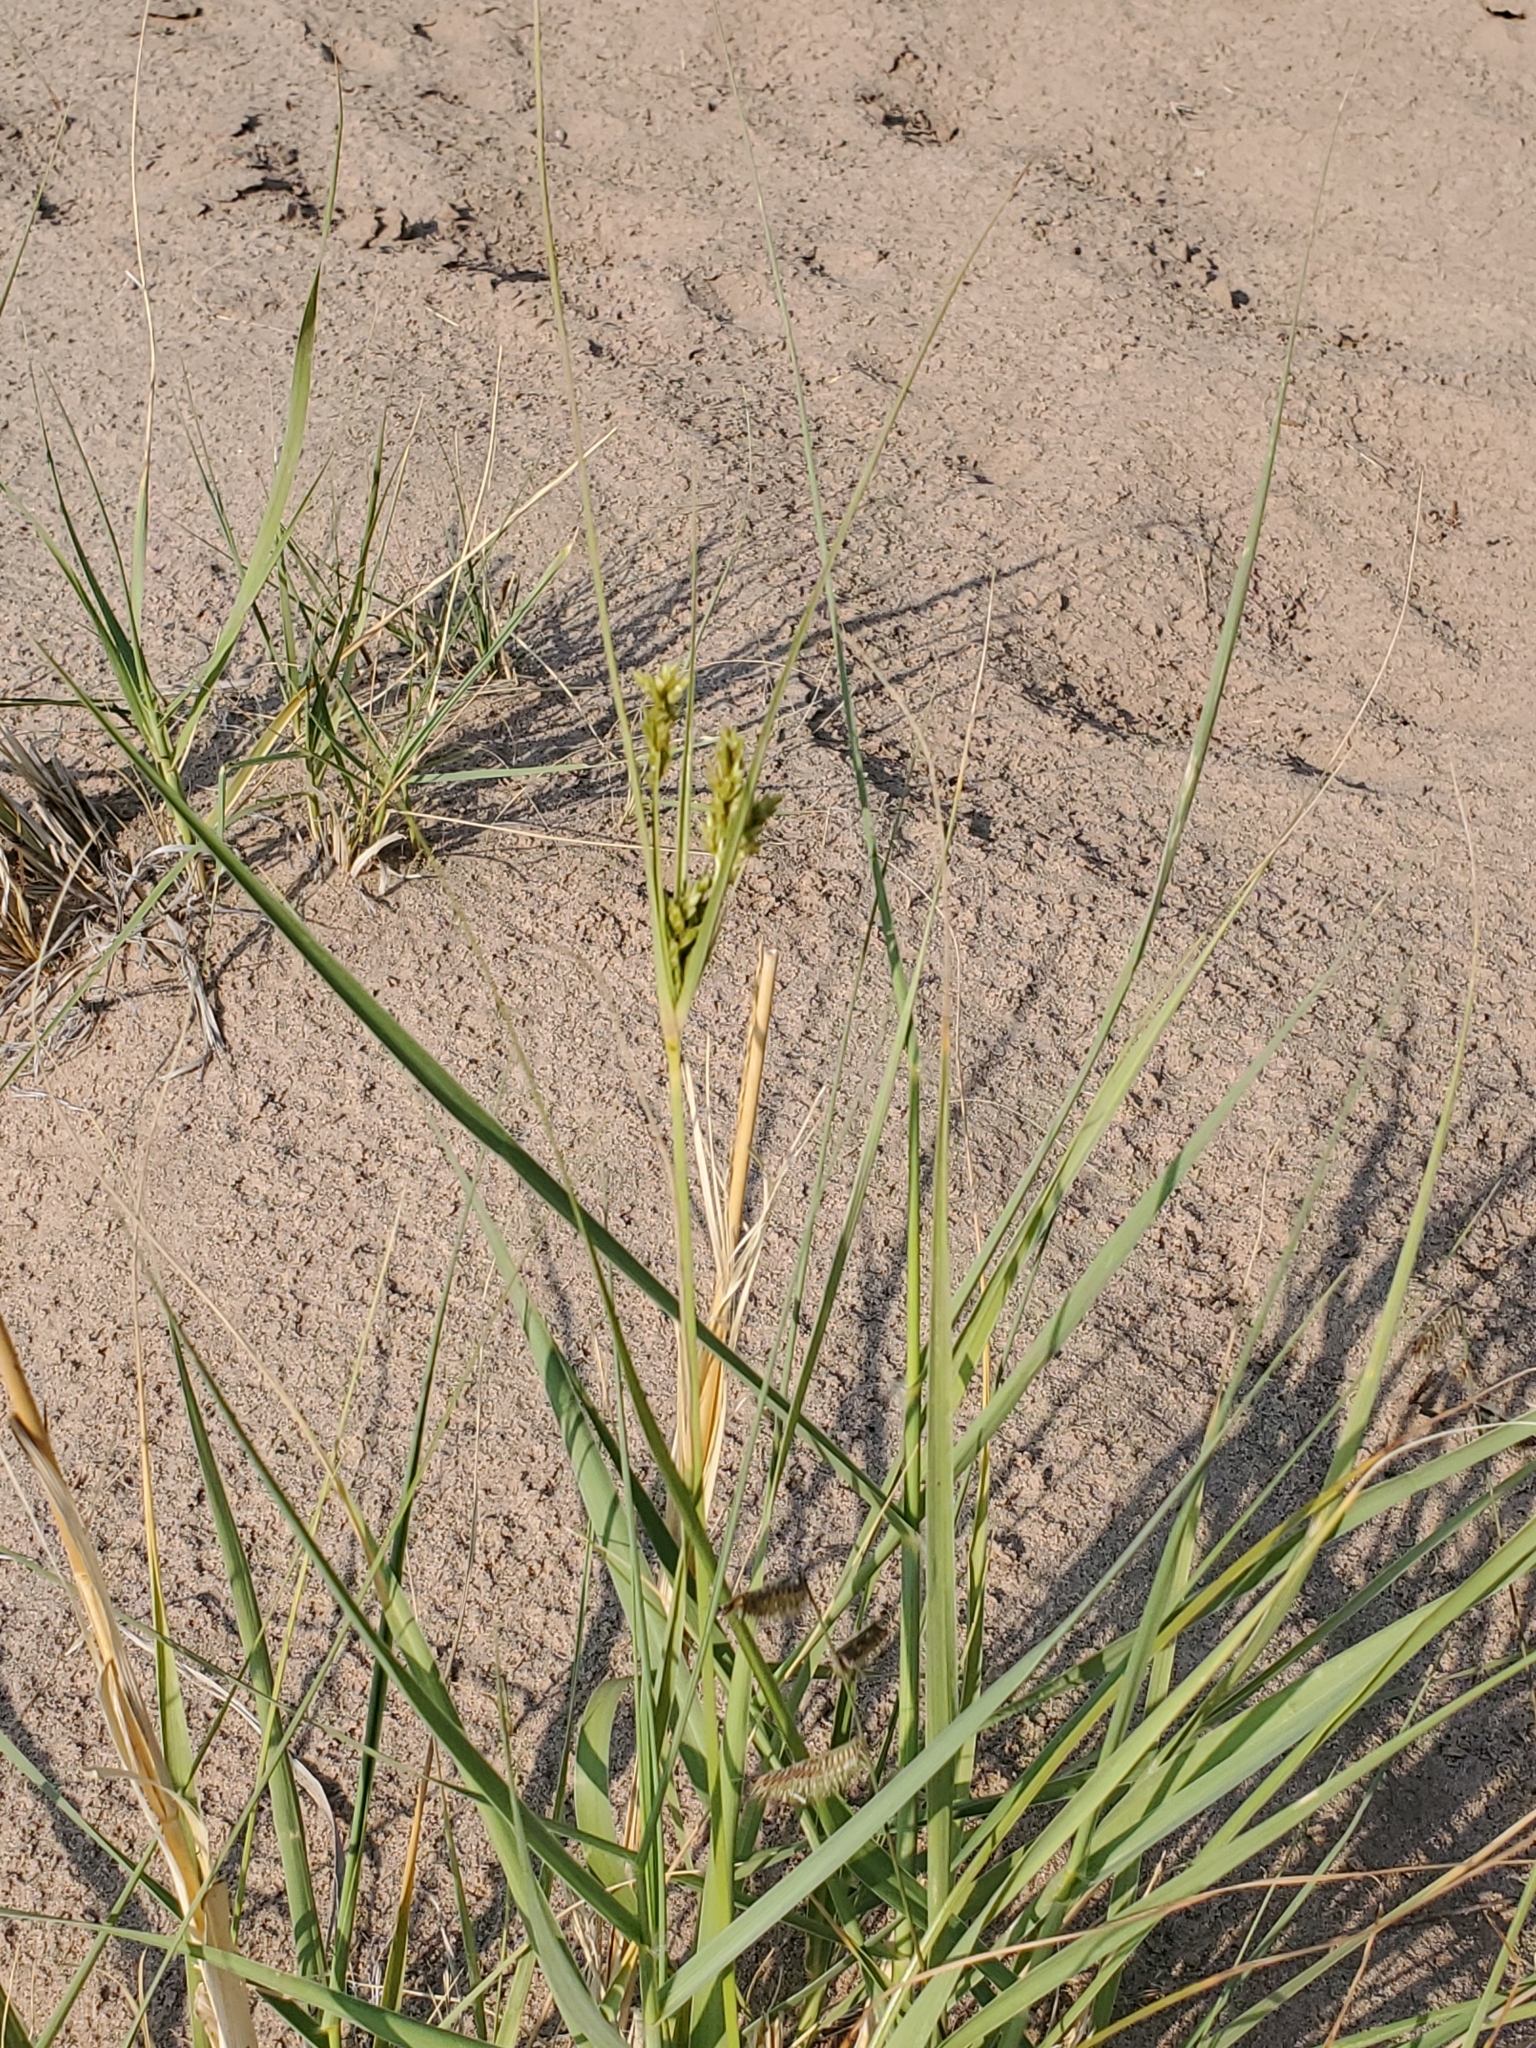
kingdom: Plantae
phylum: Tracheophyta
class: Liliopsida
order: Poales
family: Cyperaceae
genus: Cyperus
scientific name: Cyperus schweinitzii
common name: Schweinitz's cyperus
